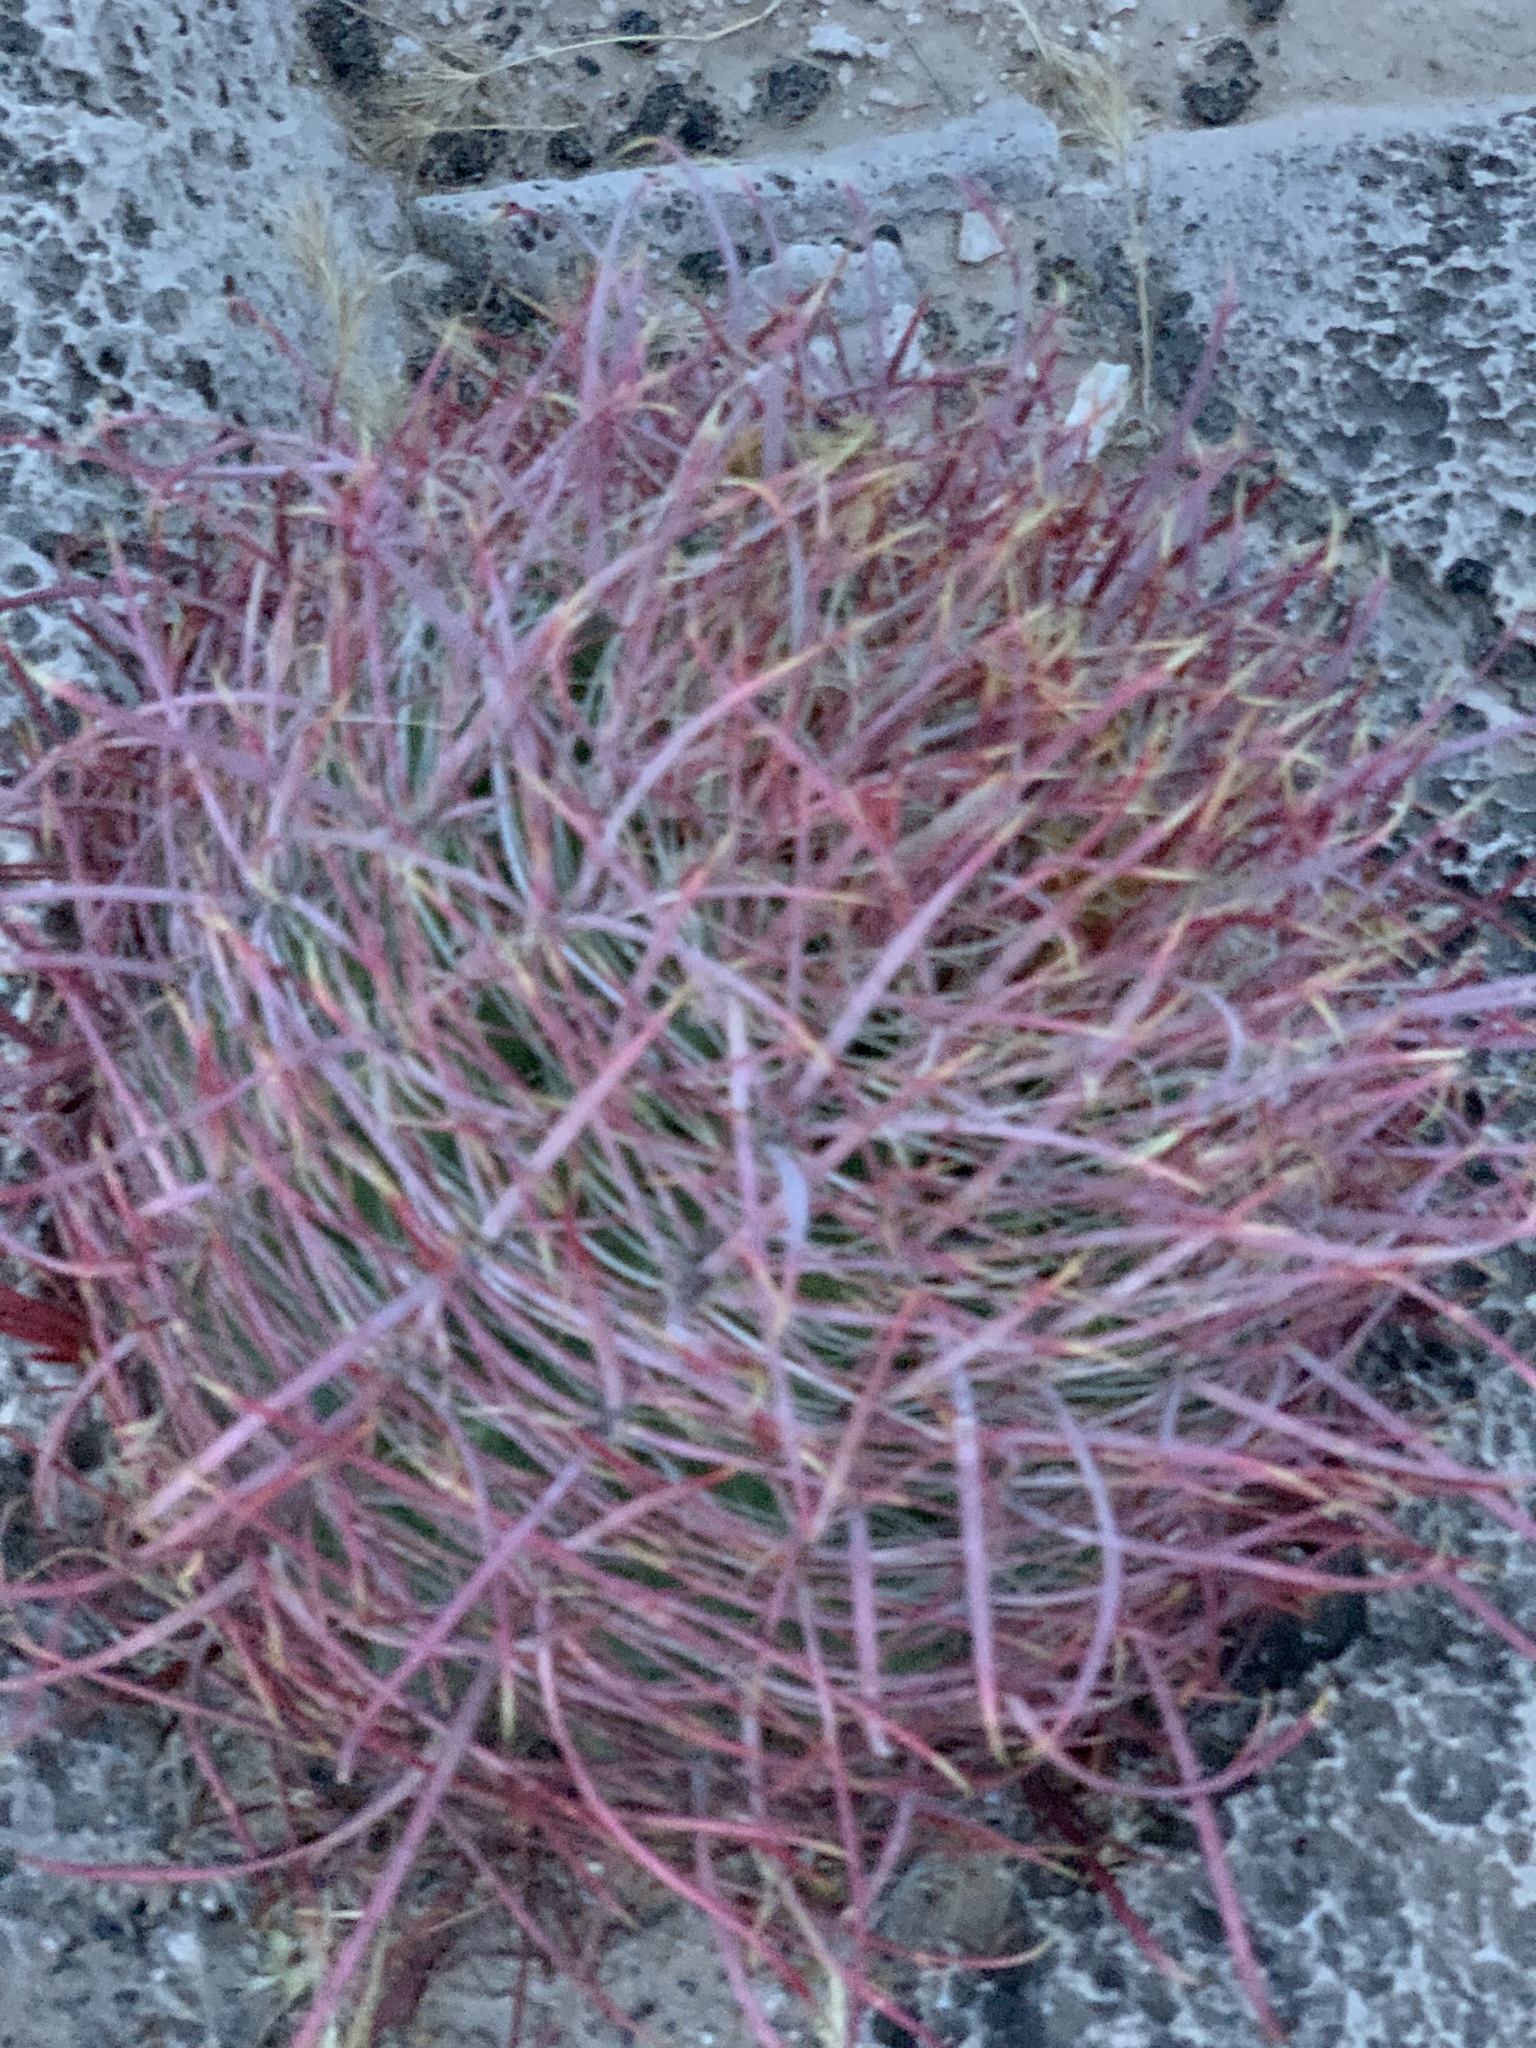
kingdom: Plantae
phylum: Tracheophyta
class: Magnoliopsida
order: Caryophyllales
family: Cactaceae
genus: Ferocactus
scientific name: Ferocactus cylindraceus
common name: California barrel cactus
